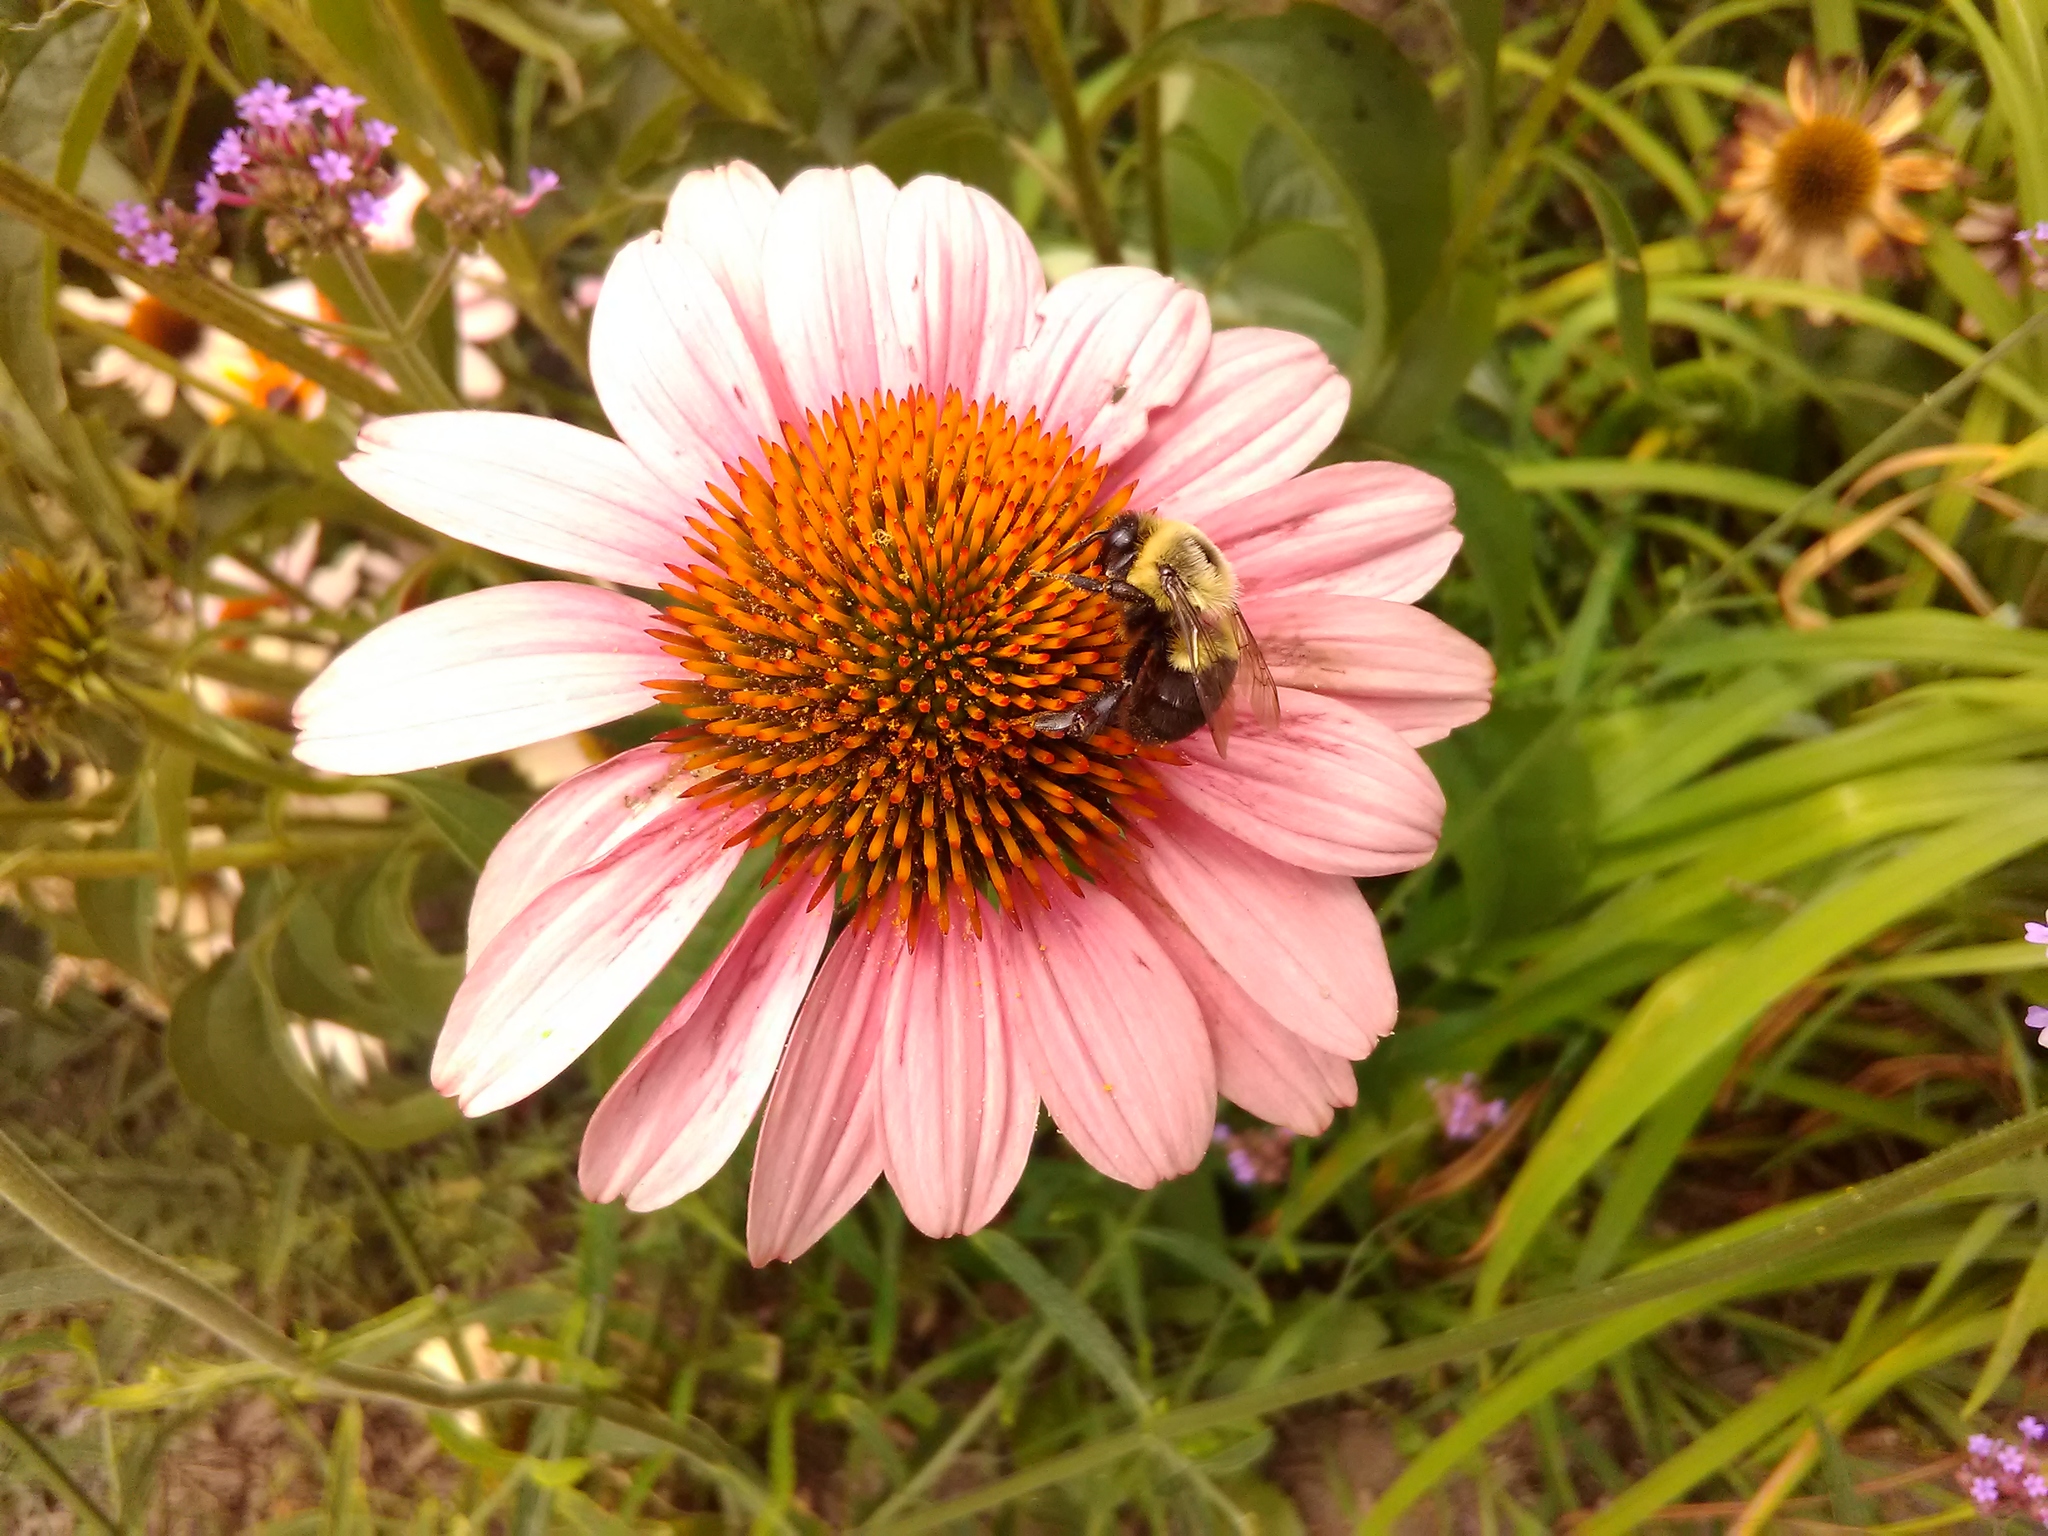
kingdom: Animalia
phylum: Arthropoda
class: Insecta
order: Hymenoptera
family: Apidae
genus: Bombus
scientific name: Bombus impatiens
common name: Common eastern bumble bee
